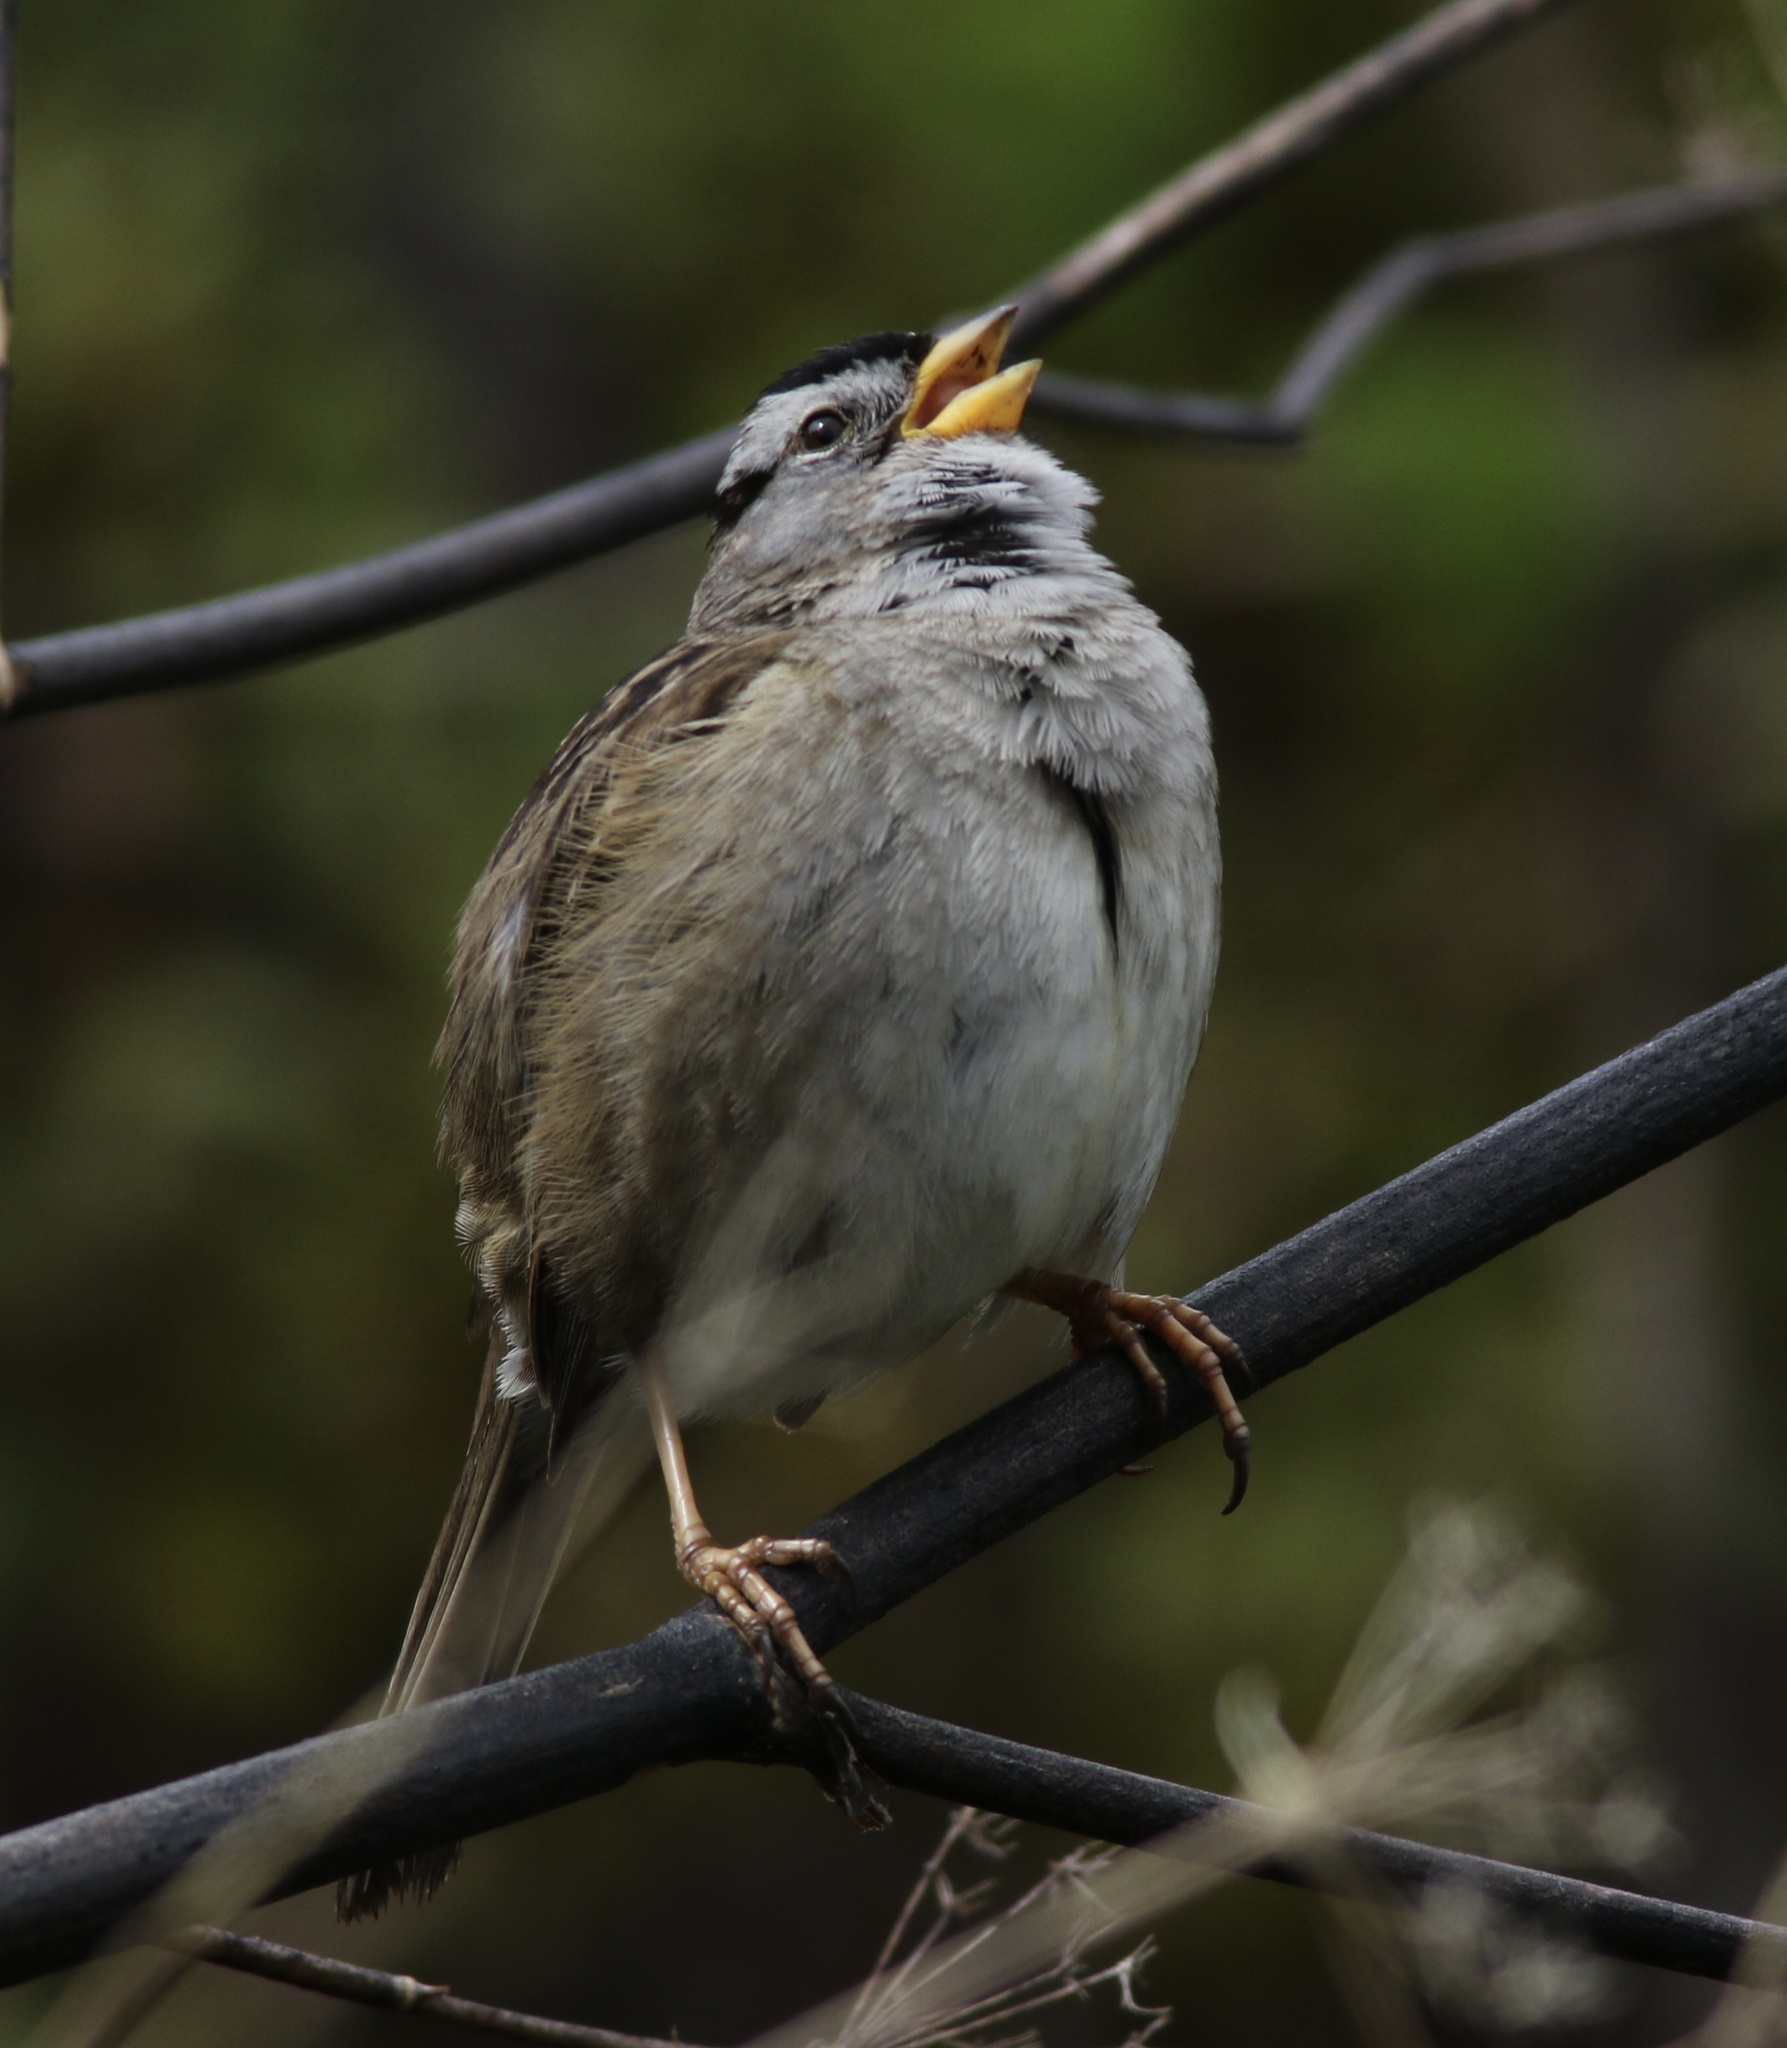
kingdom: Animalia
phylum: Chordata
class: Aves
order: Passeriformes
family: Passerellidae
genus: Zonotrichia
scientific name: Zonotrichia leucophrys
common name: White-crowned sparrow
